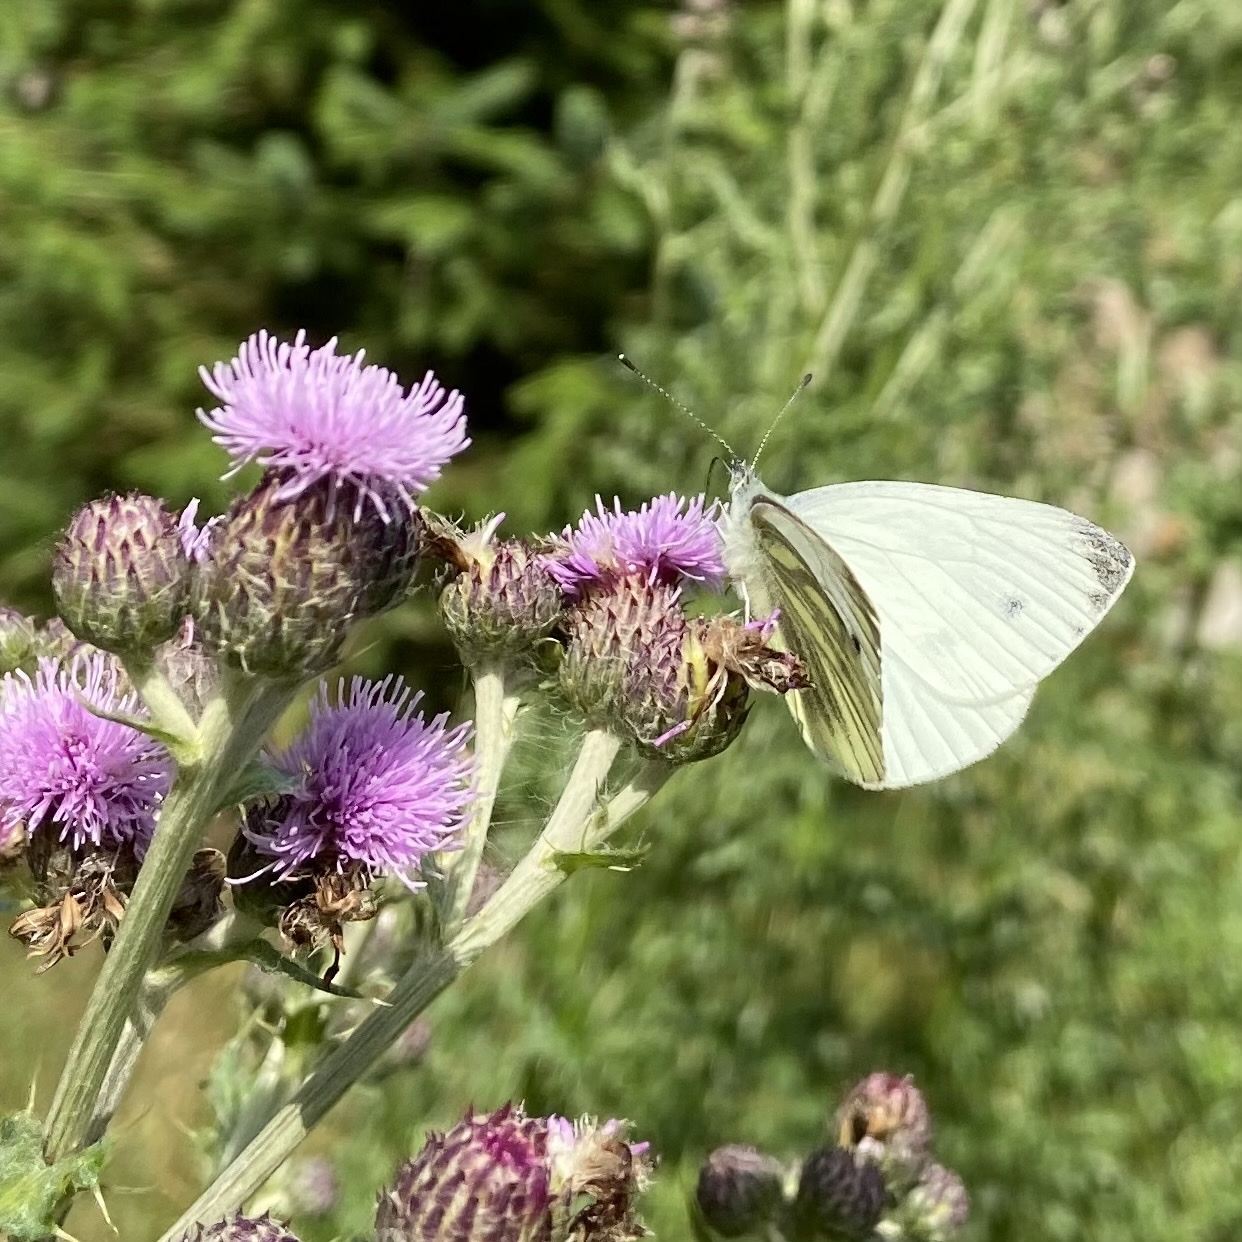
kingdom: Animalia
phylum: Arthropoda
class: Insecta
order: Lepidoptera
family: Pieridae
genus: Pieris
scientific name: Pieris napi
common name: Green-veined white
